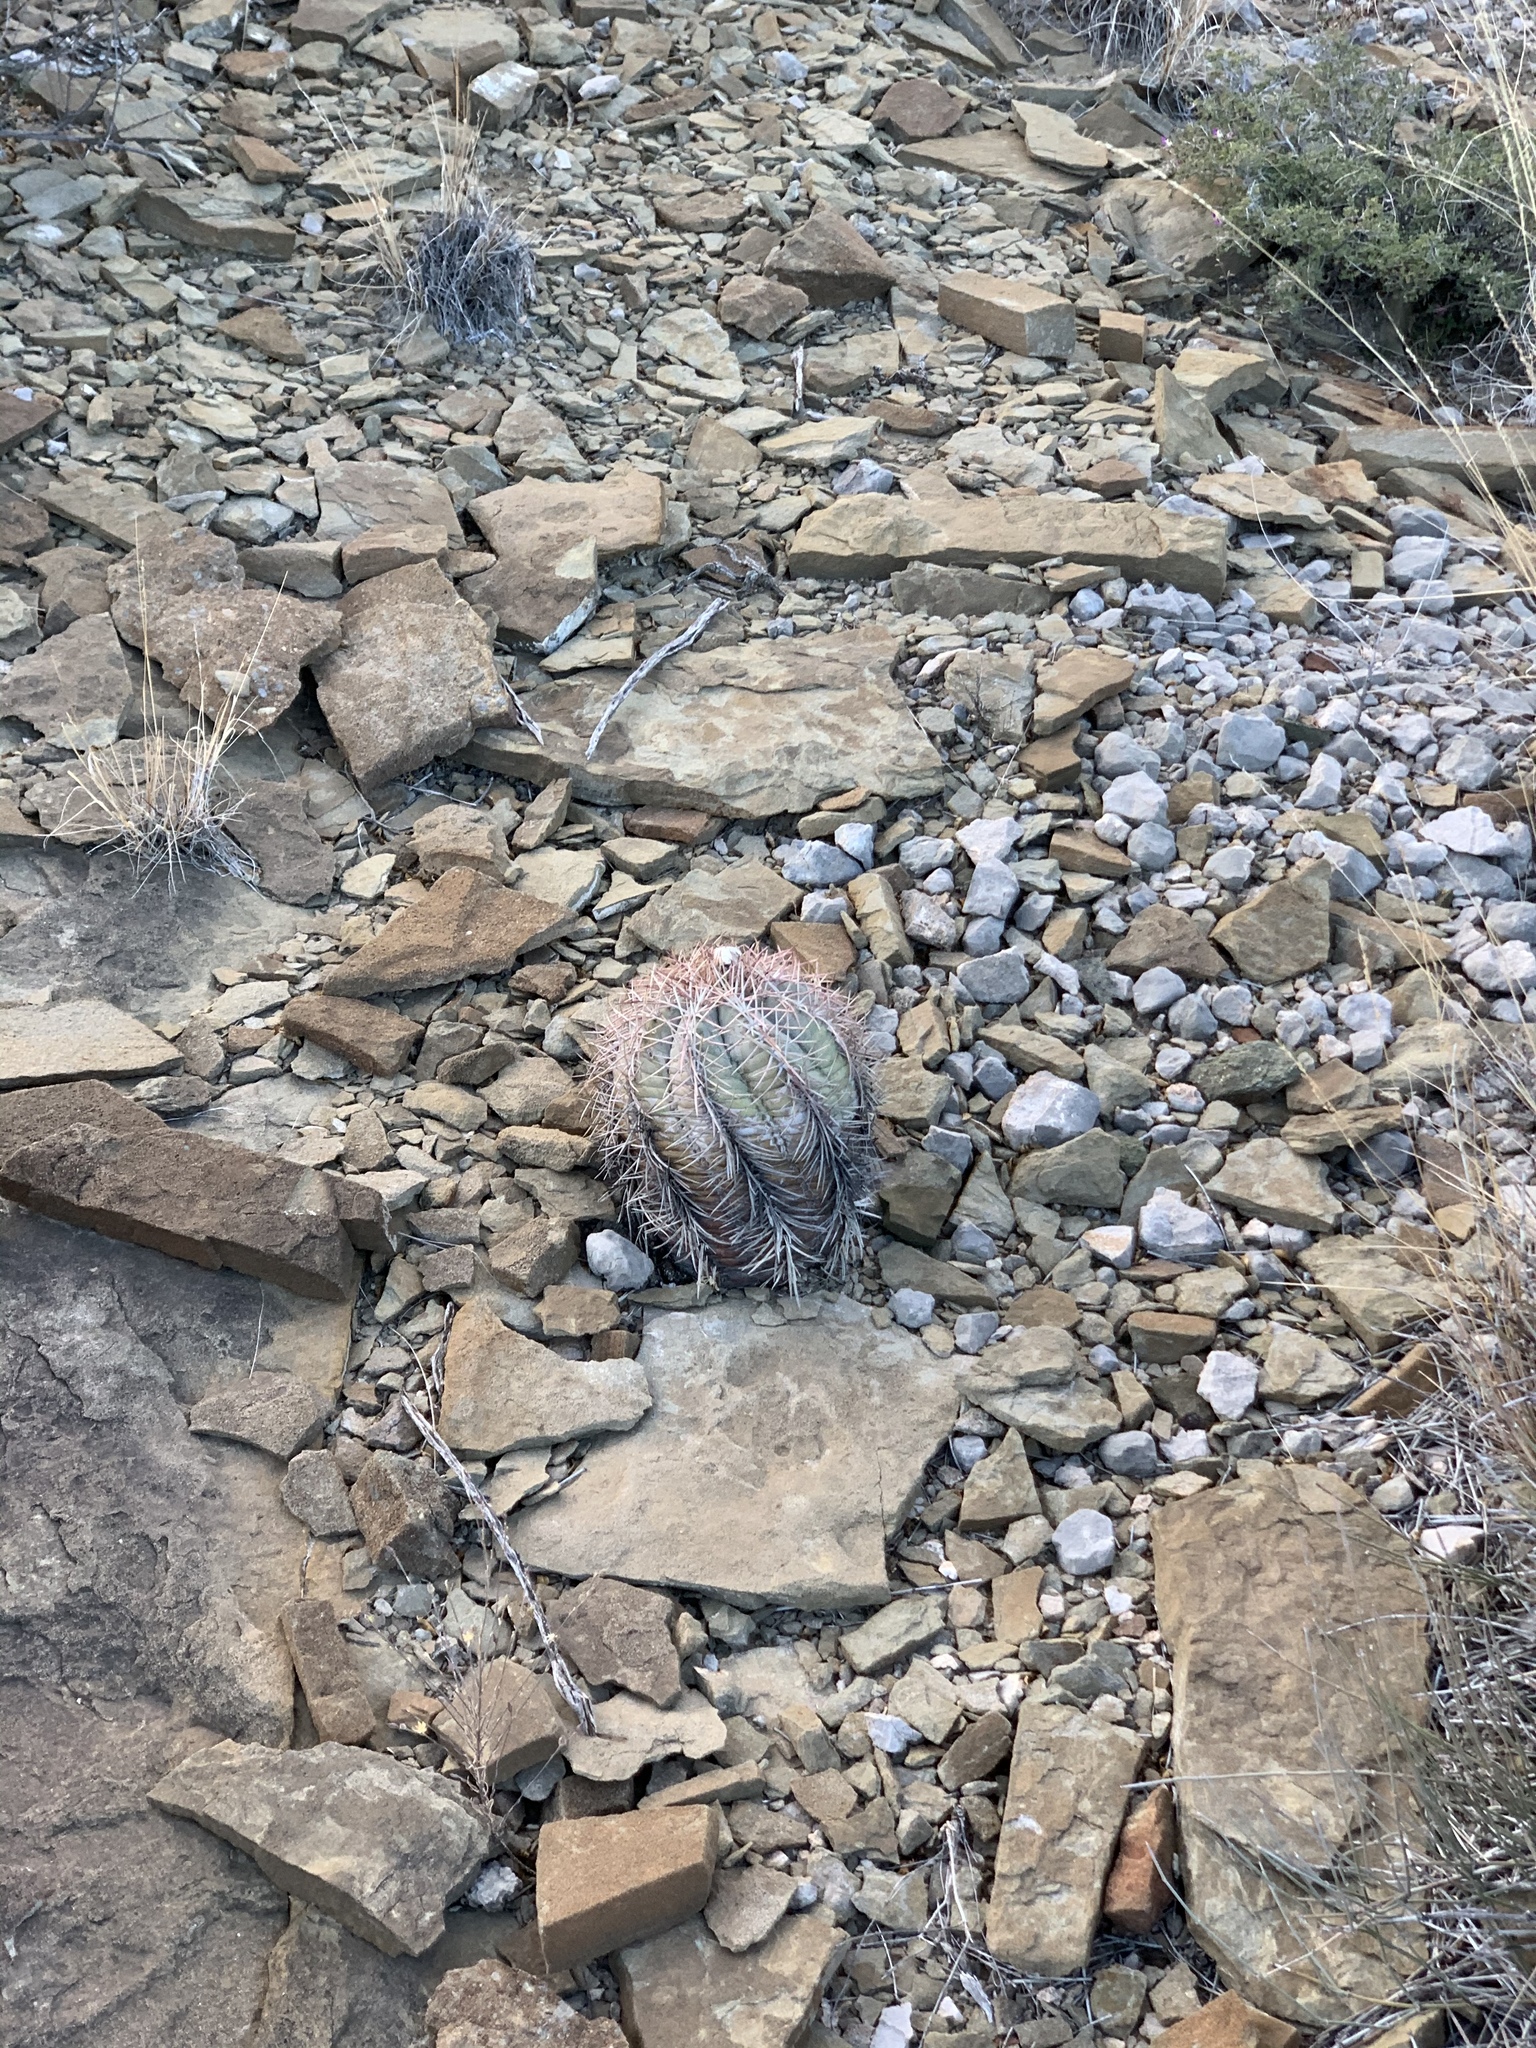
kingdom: Plantae
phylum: Tracheophyta
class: Magnoliopsida
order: Caryophyllales
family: Cactaceae
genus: Echinocactus
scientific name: Echinocactus horizonthalonius
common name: Devilshead
